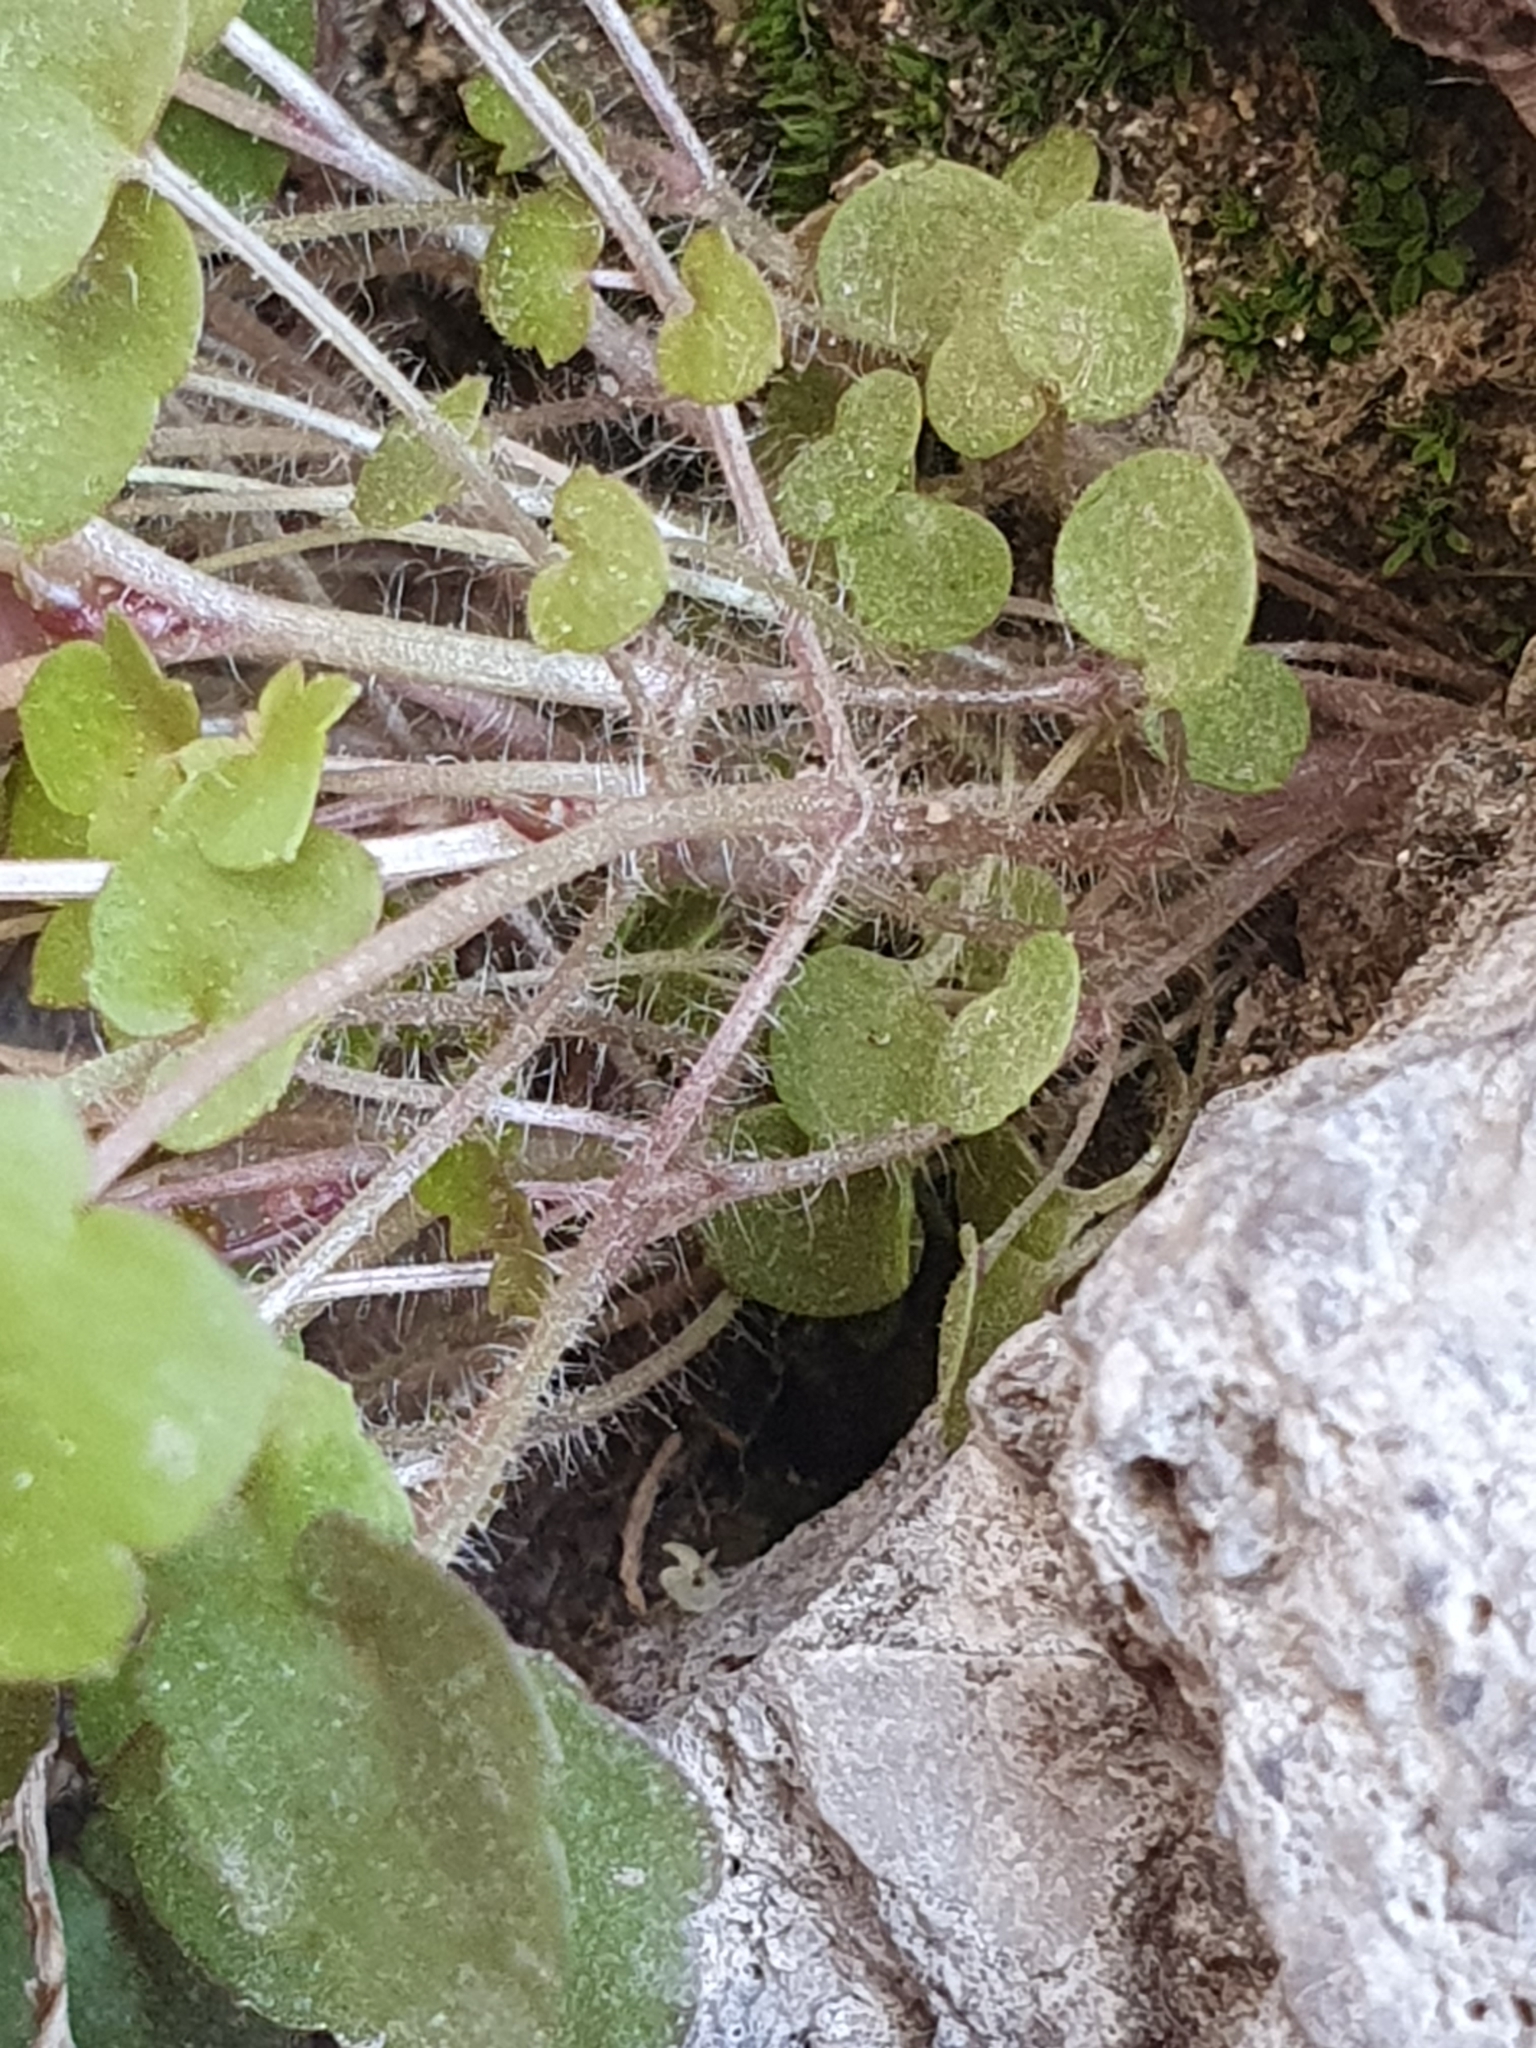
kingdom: Plantae
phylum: Tracheophyta
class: Magnoliopsida
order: Lamiales
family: Plantaginaceae
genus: Cymbalaria
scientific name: Cymbalaria muralis
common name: Ivy-leaved toadflax
